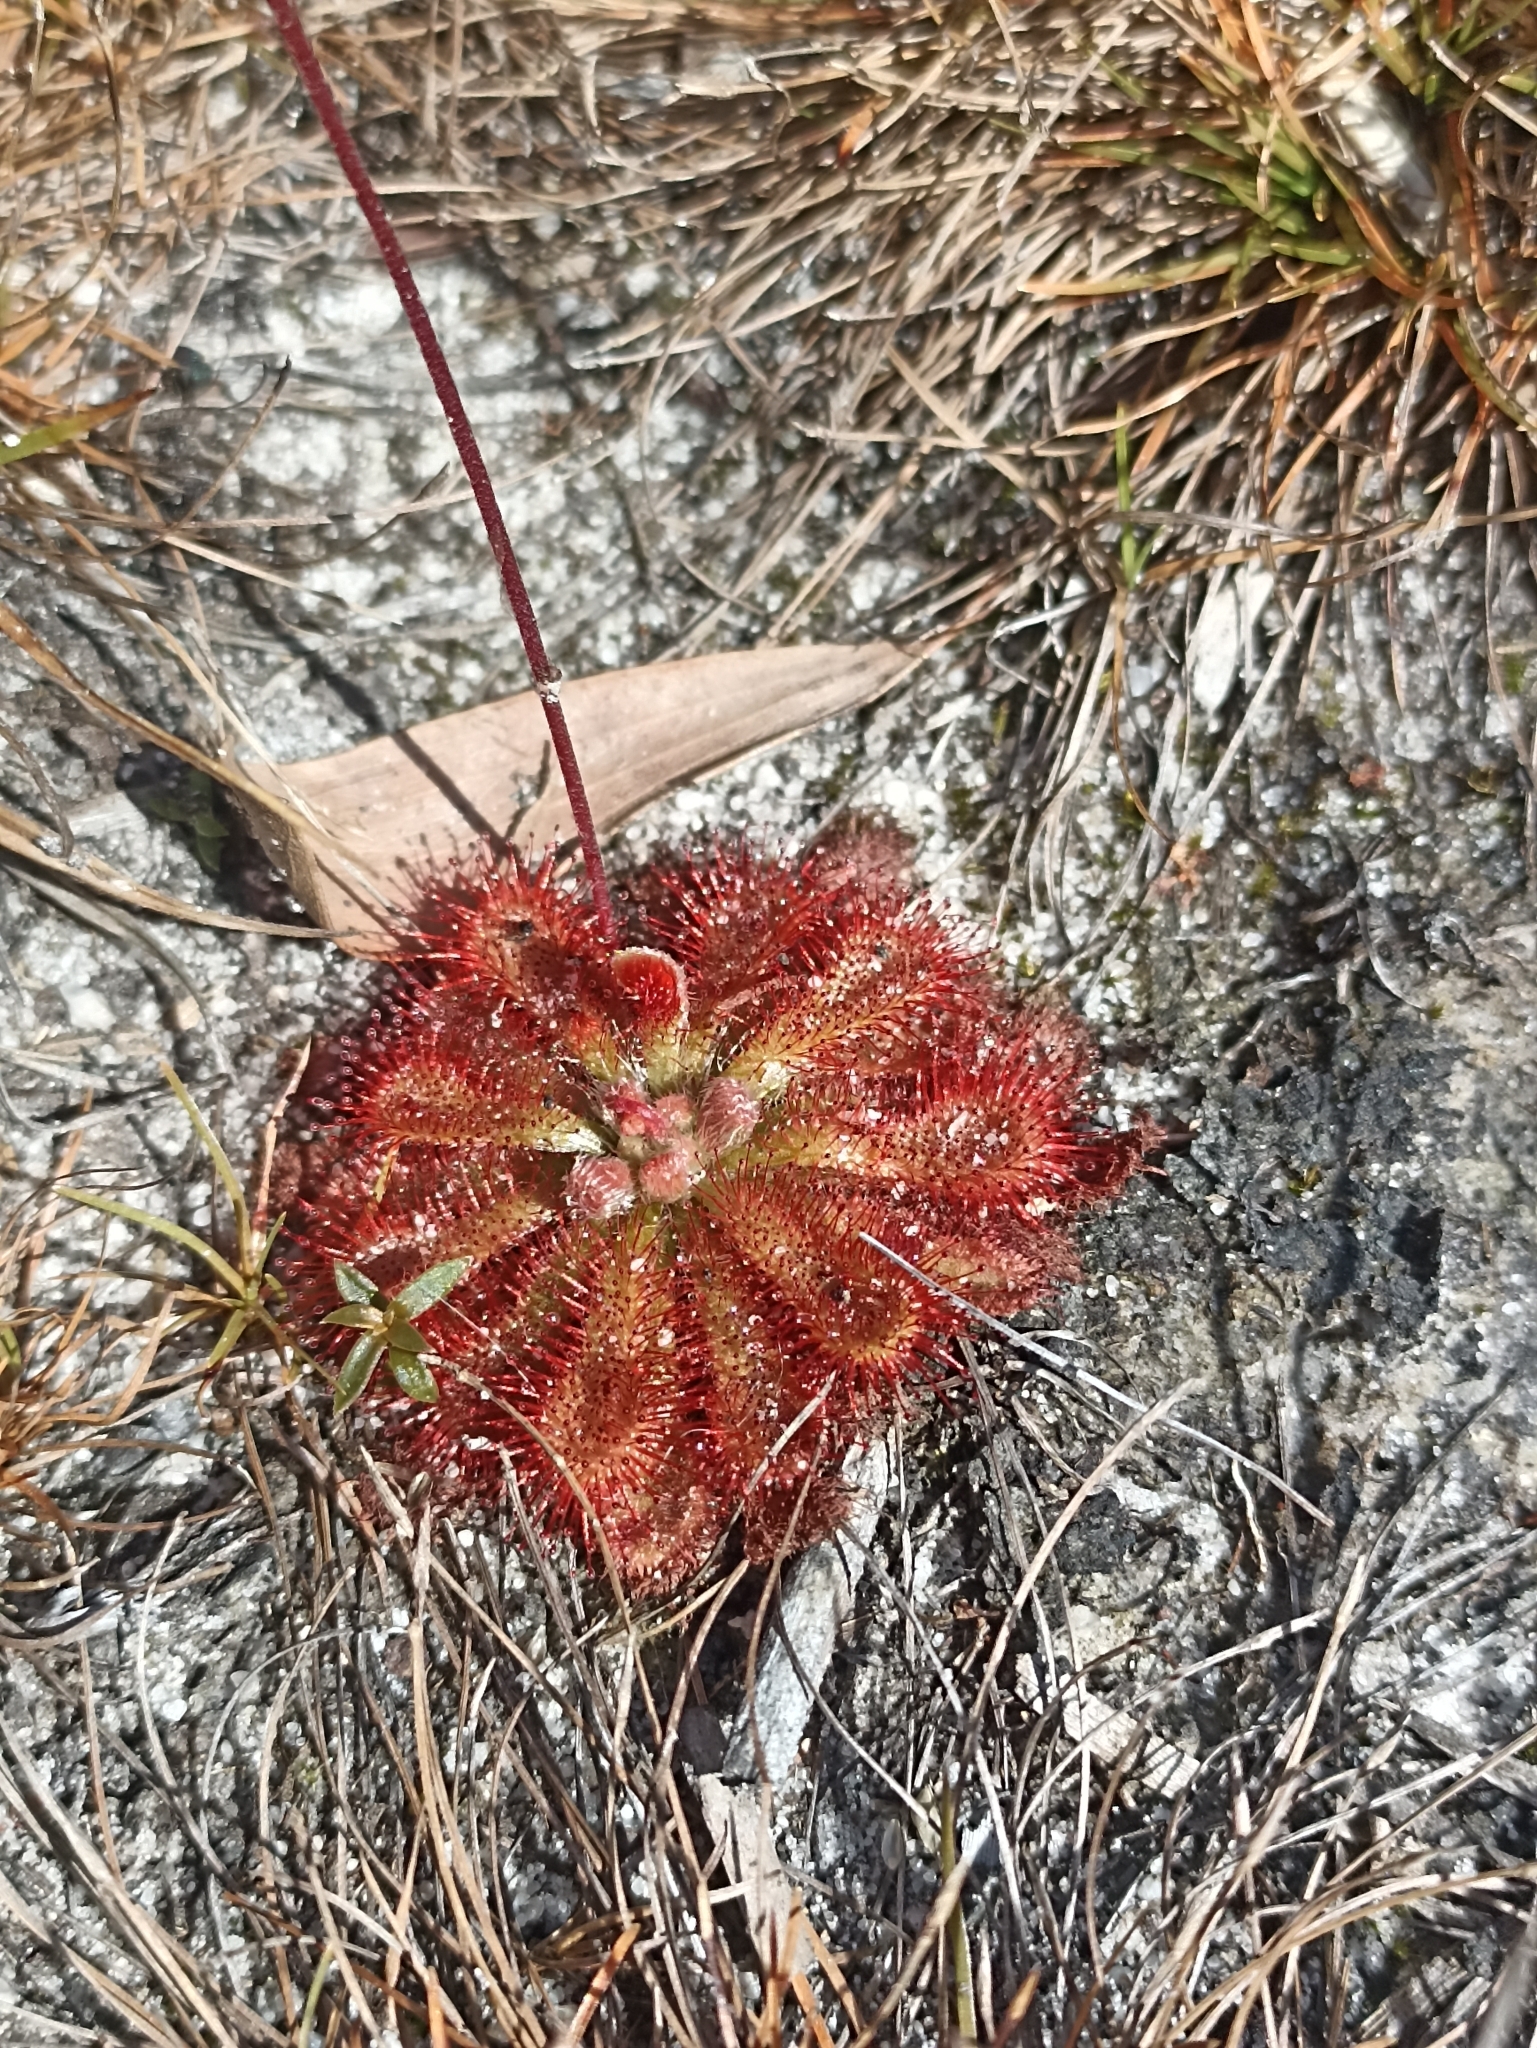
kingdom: Plantae
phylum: Tracheophyta
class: Magnoliopsida
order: Caryophyllales
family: Droseraceae
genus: Drosera
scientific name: Drosera spatulata
